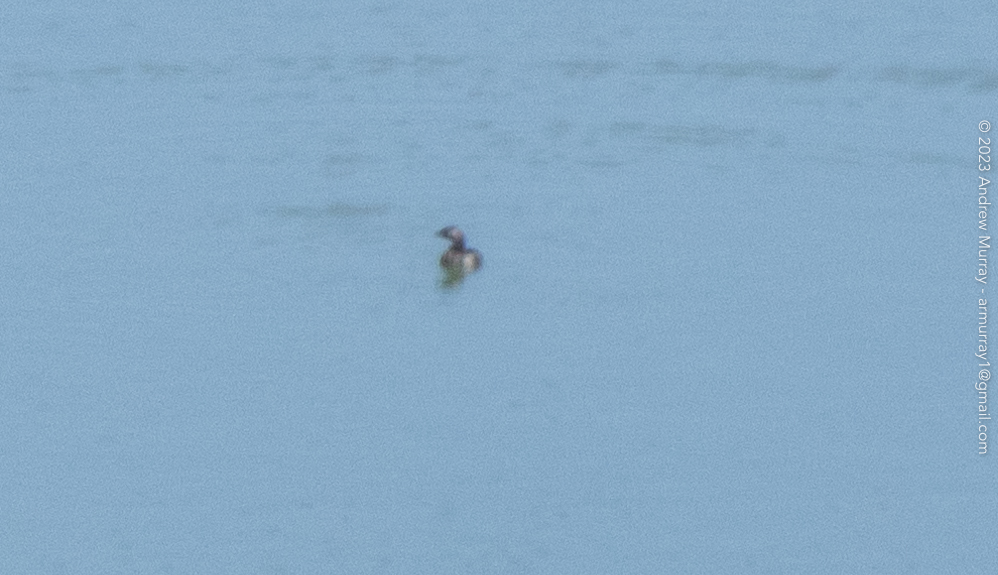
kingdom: Animalia
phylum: Chordata
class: Aves
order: Podicipediformes
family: Podicipedidae
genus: Podilymbus
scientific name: Podilymbus podiceps
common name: Pied-billed grebe
